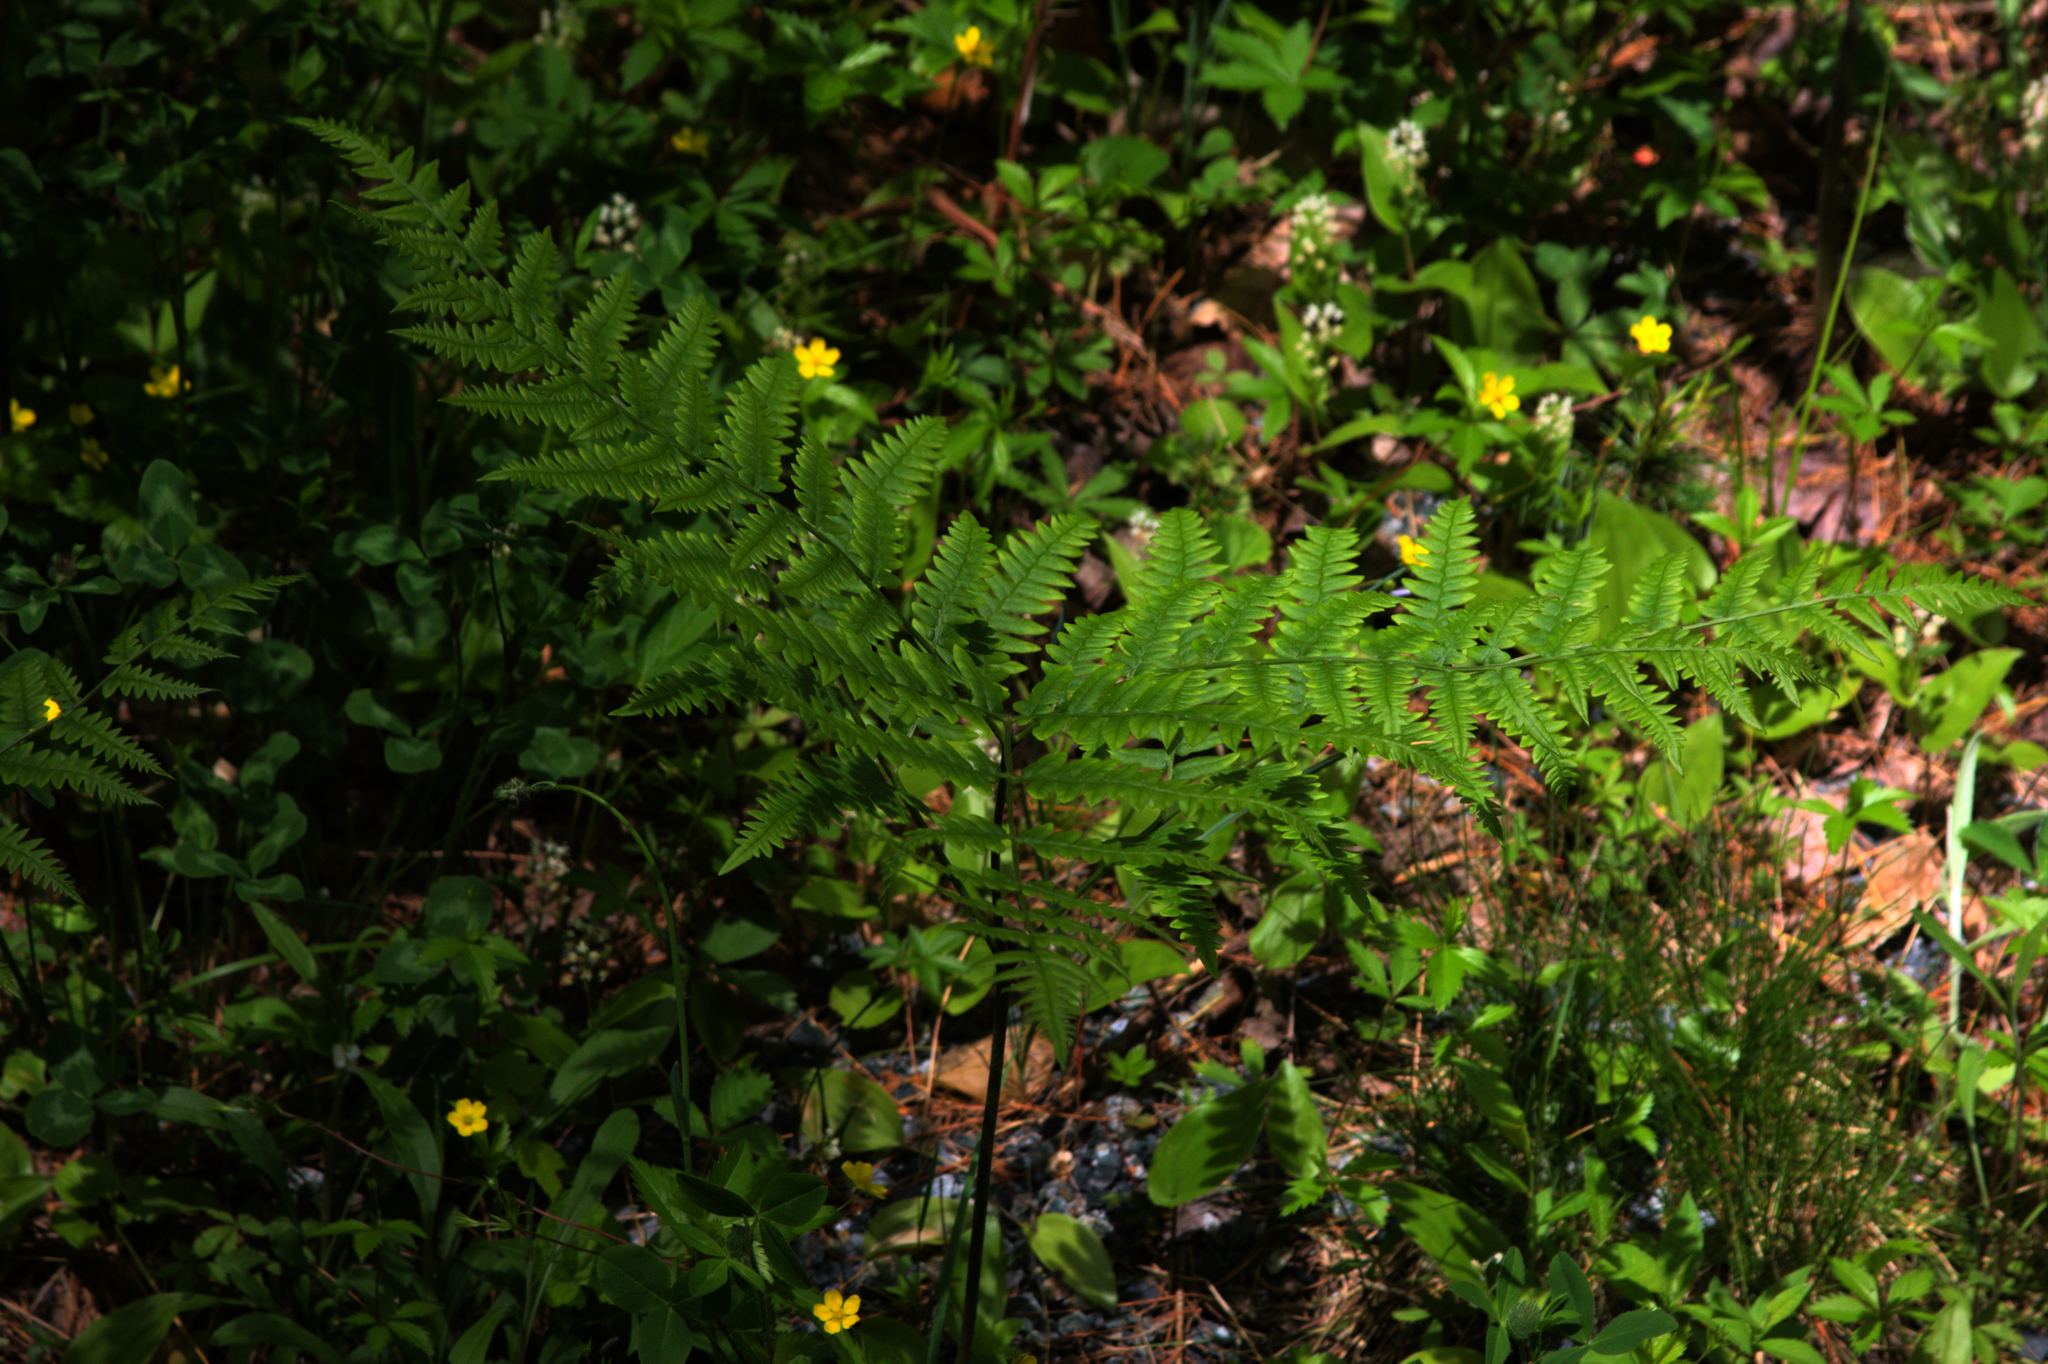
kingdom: Plantae
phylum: Tracheophyta
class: Polypodiopsida
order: Polypodiales
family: Dennstaedtiaceae
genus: Pteridium
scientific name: Pteridium aquilinum
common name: Bracken
